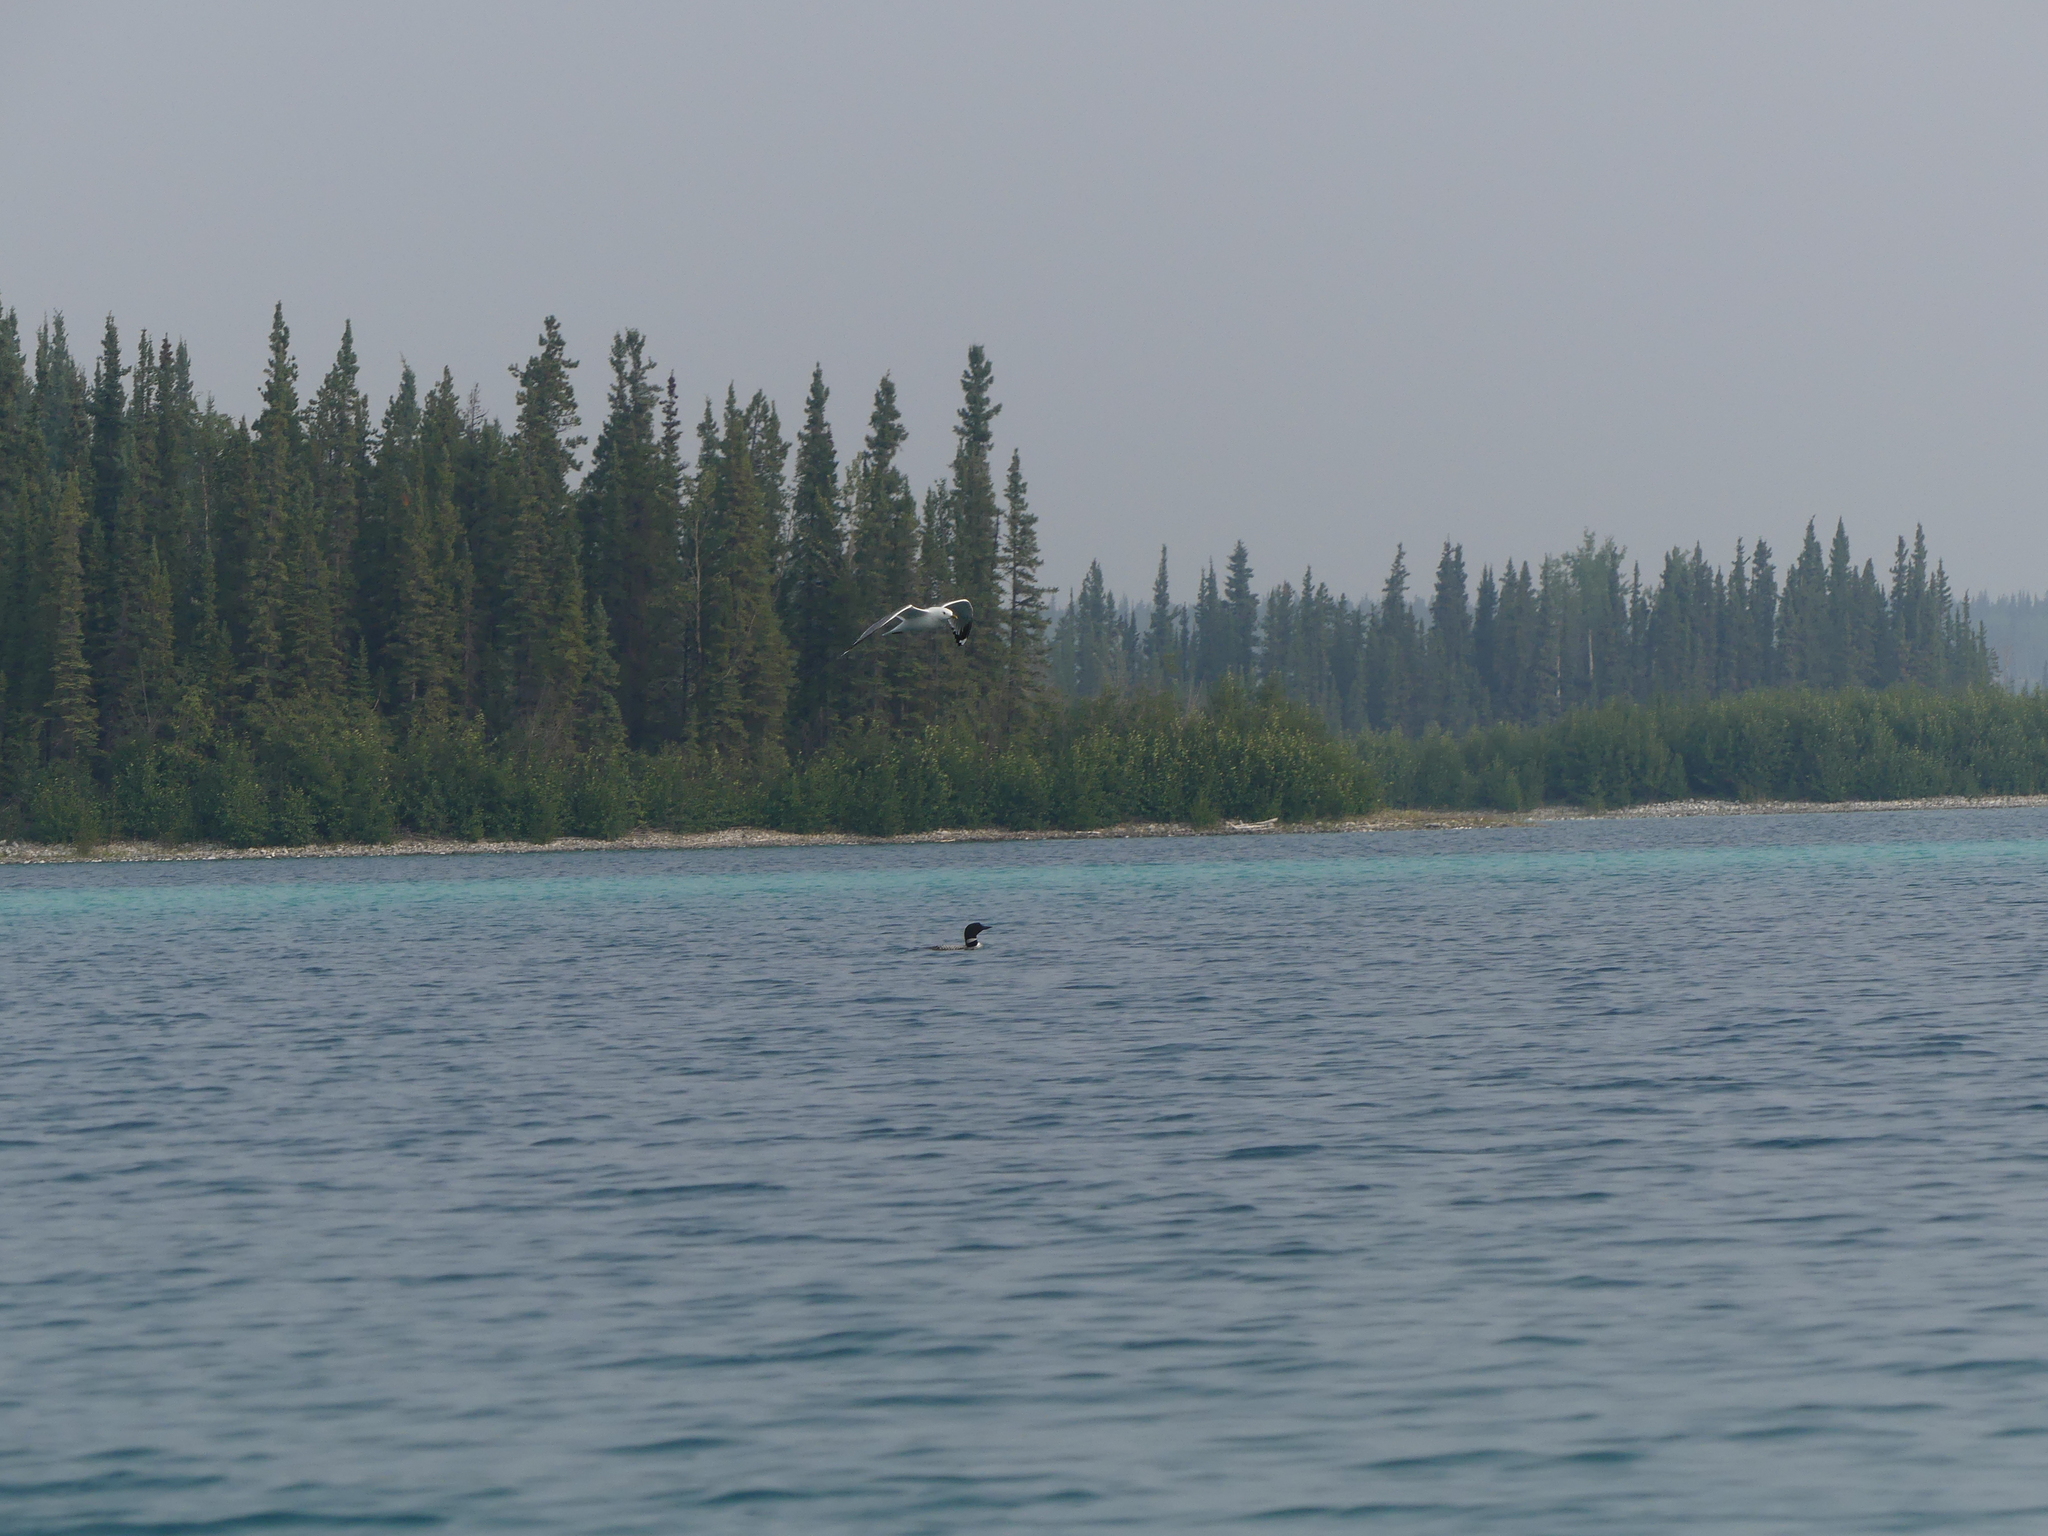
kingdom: Animalia
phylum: Chordata
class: Aves
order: Gaviiformes
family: Gaviidae
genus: Gavia
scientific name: Gavia immer
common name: Common loon
